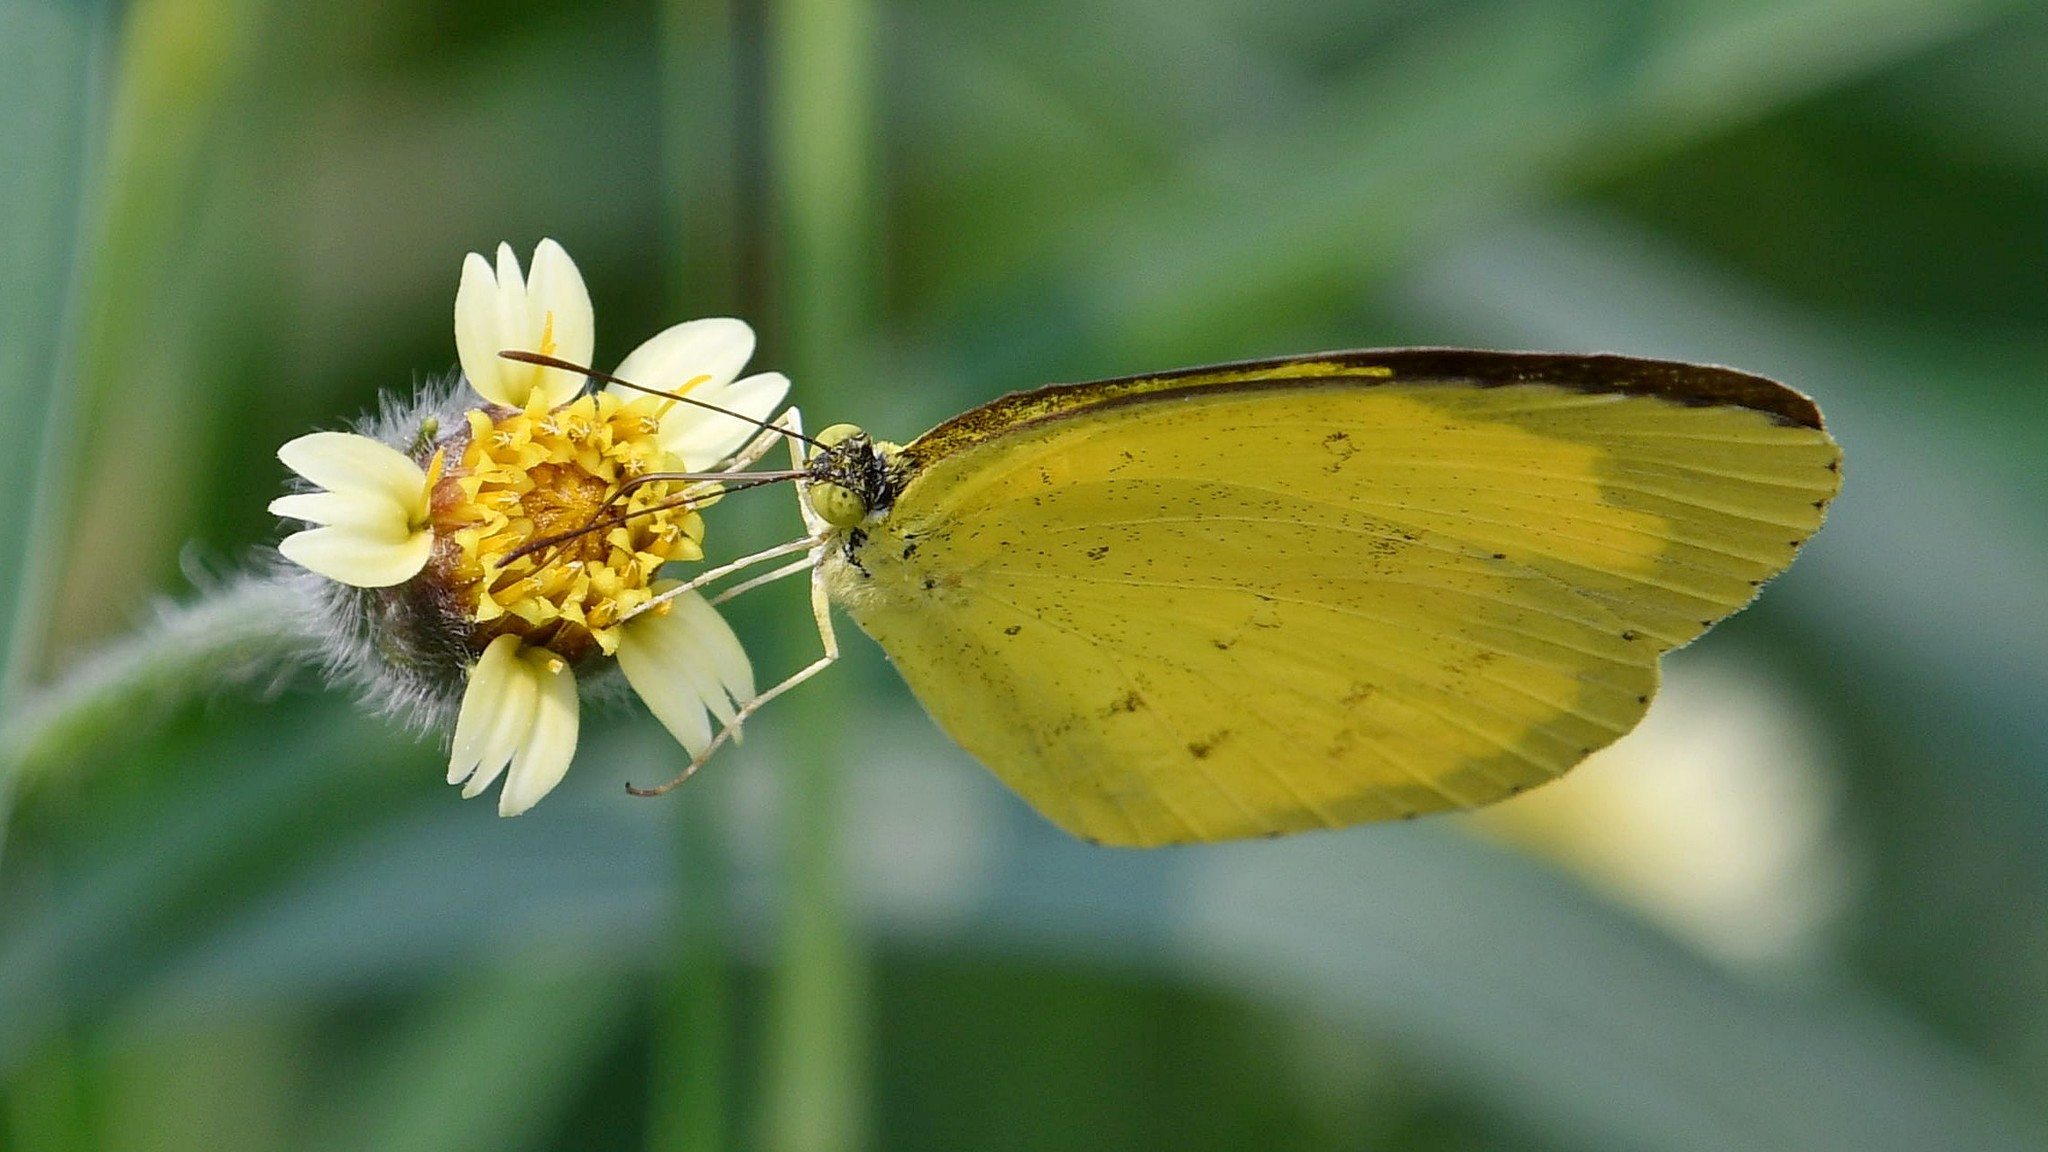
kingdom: Animalia
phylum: Arthropoda
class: Insecta
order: Lepidoptera
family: Pieridae
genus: Eurema
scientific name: Eurema hecabe
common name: Pale grass yellow
